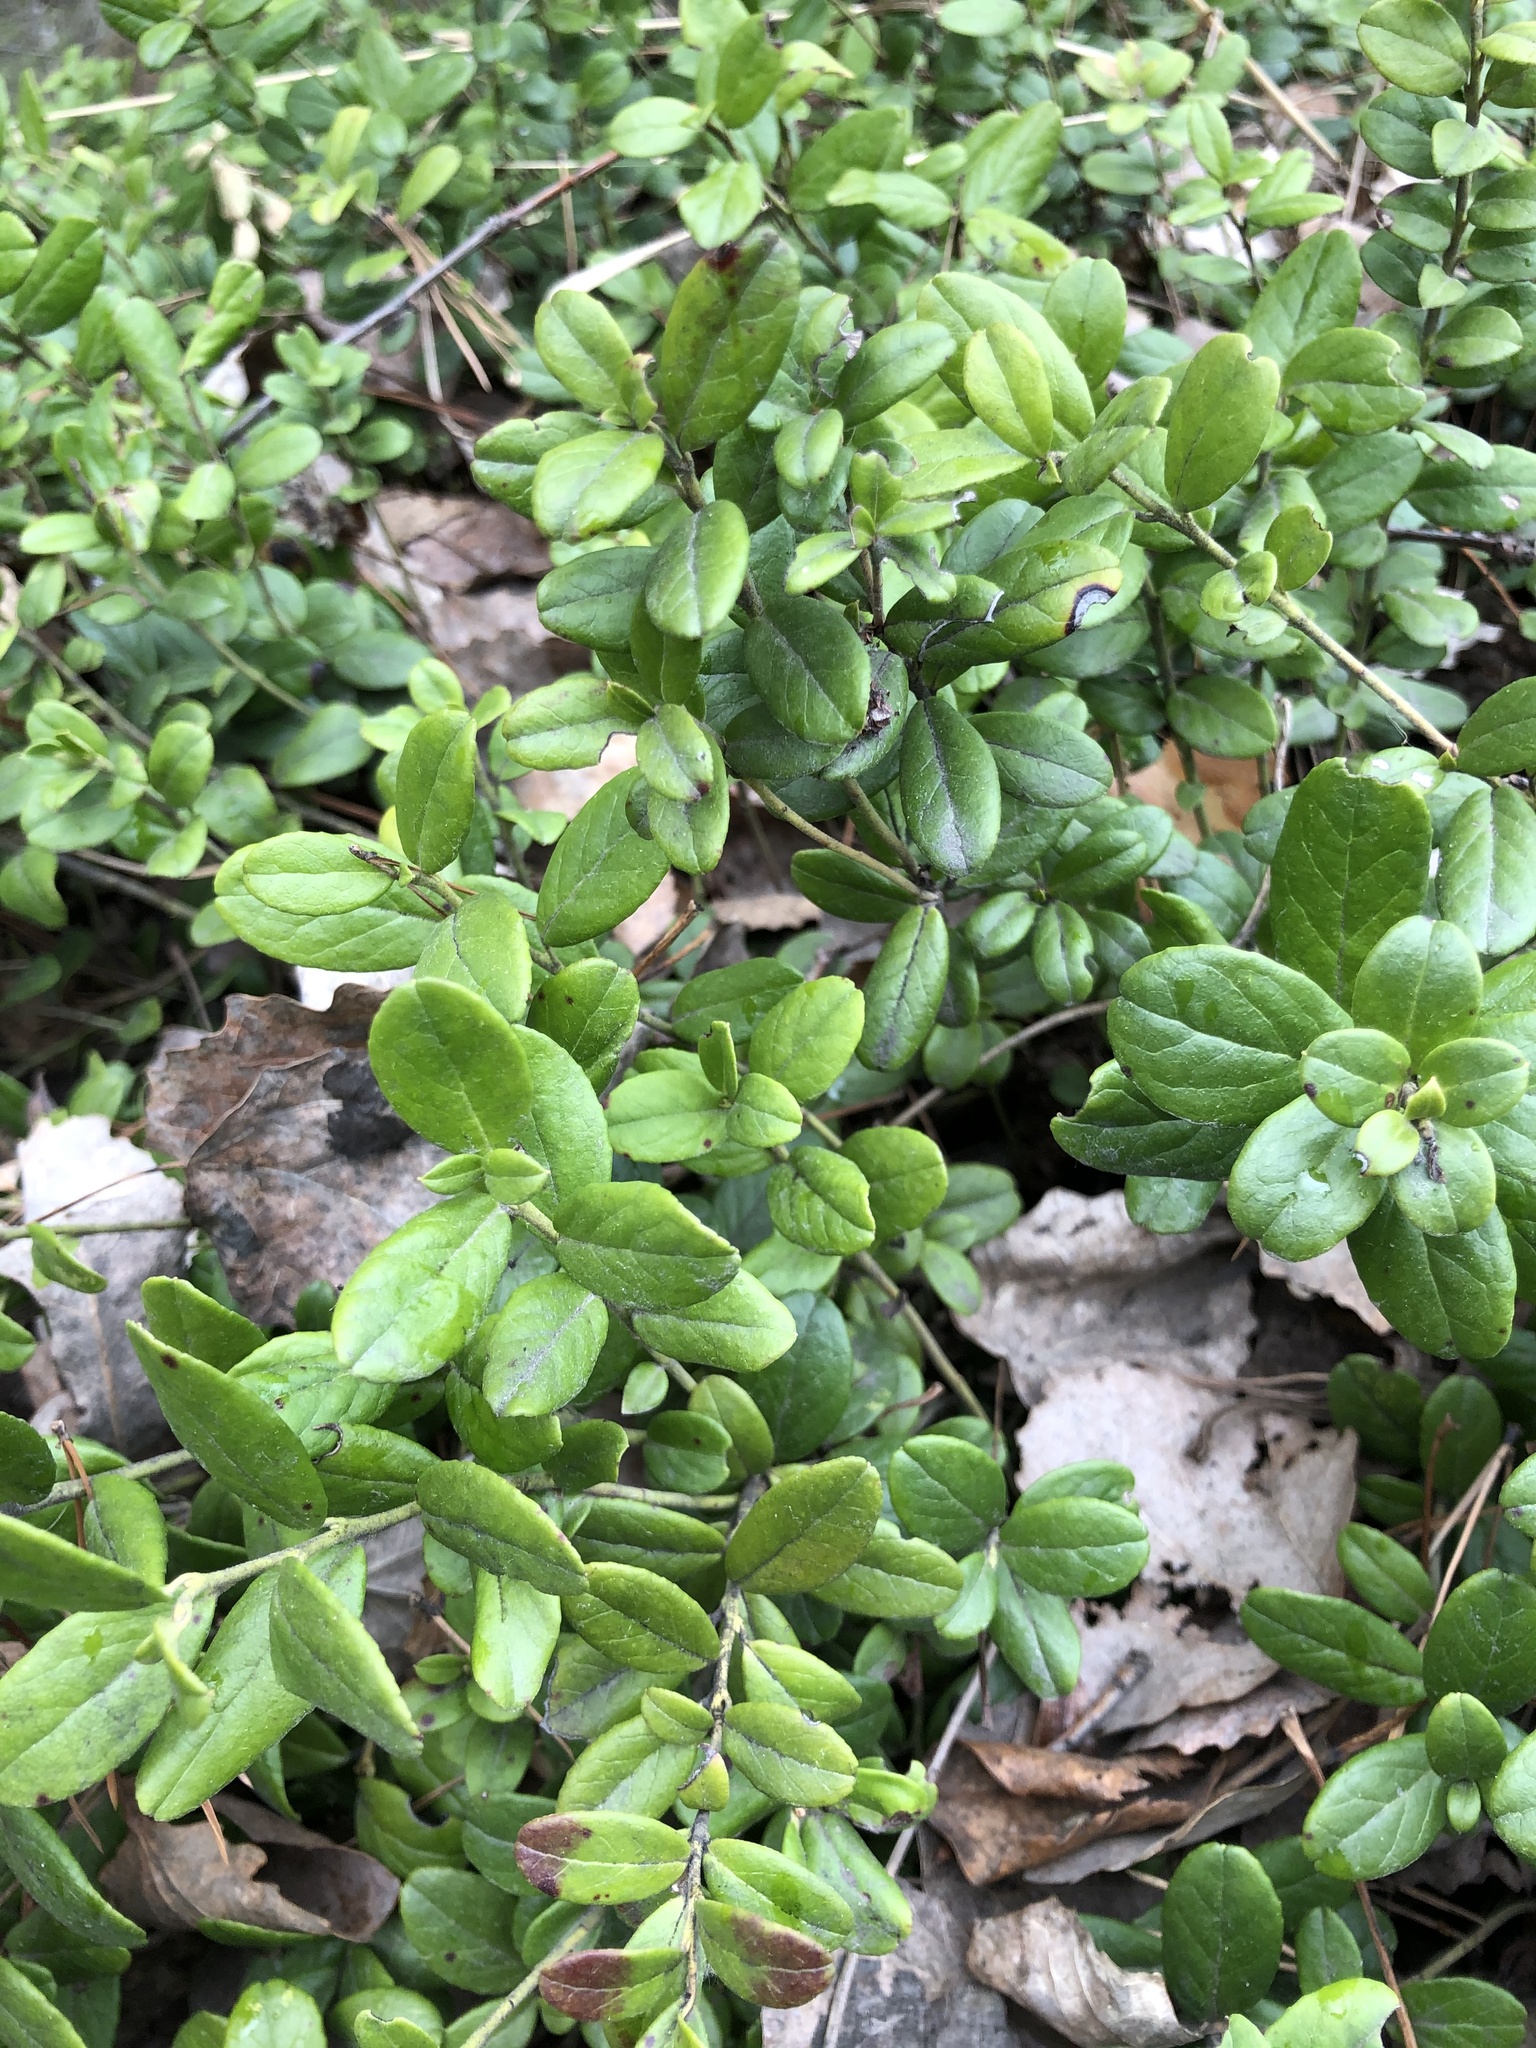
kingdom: Plantae
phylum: Tracheophyta
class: Magnoliopsida
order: Ericales
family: Ericaceae
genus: Vaccinium
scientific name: Vaccinium vitis-idaea
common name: Cowberry
